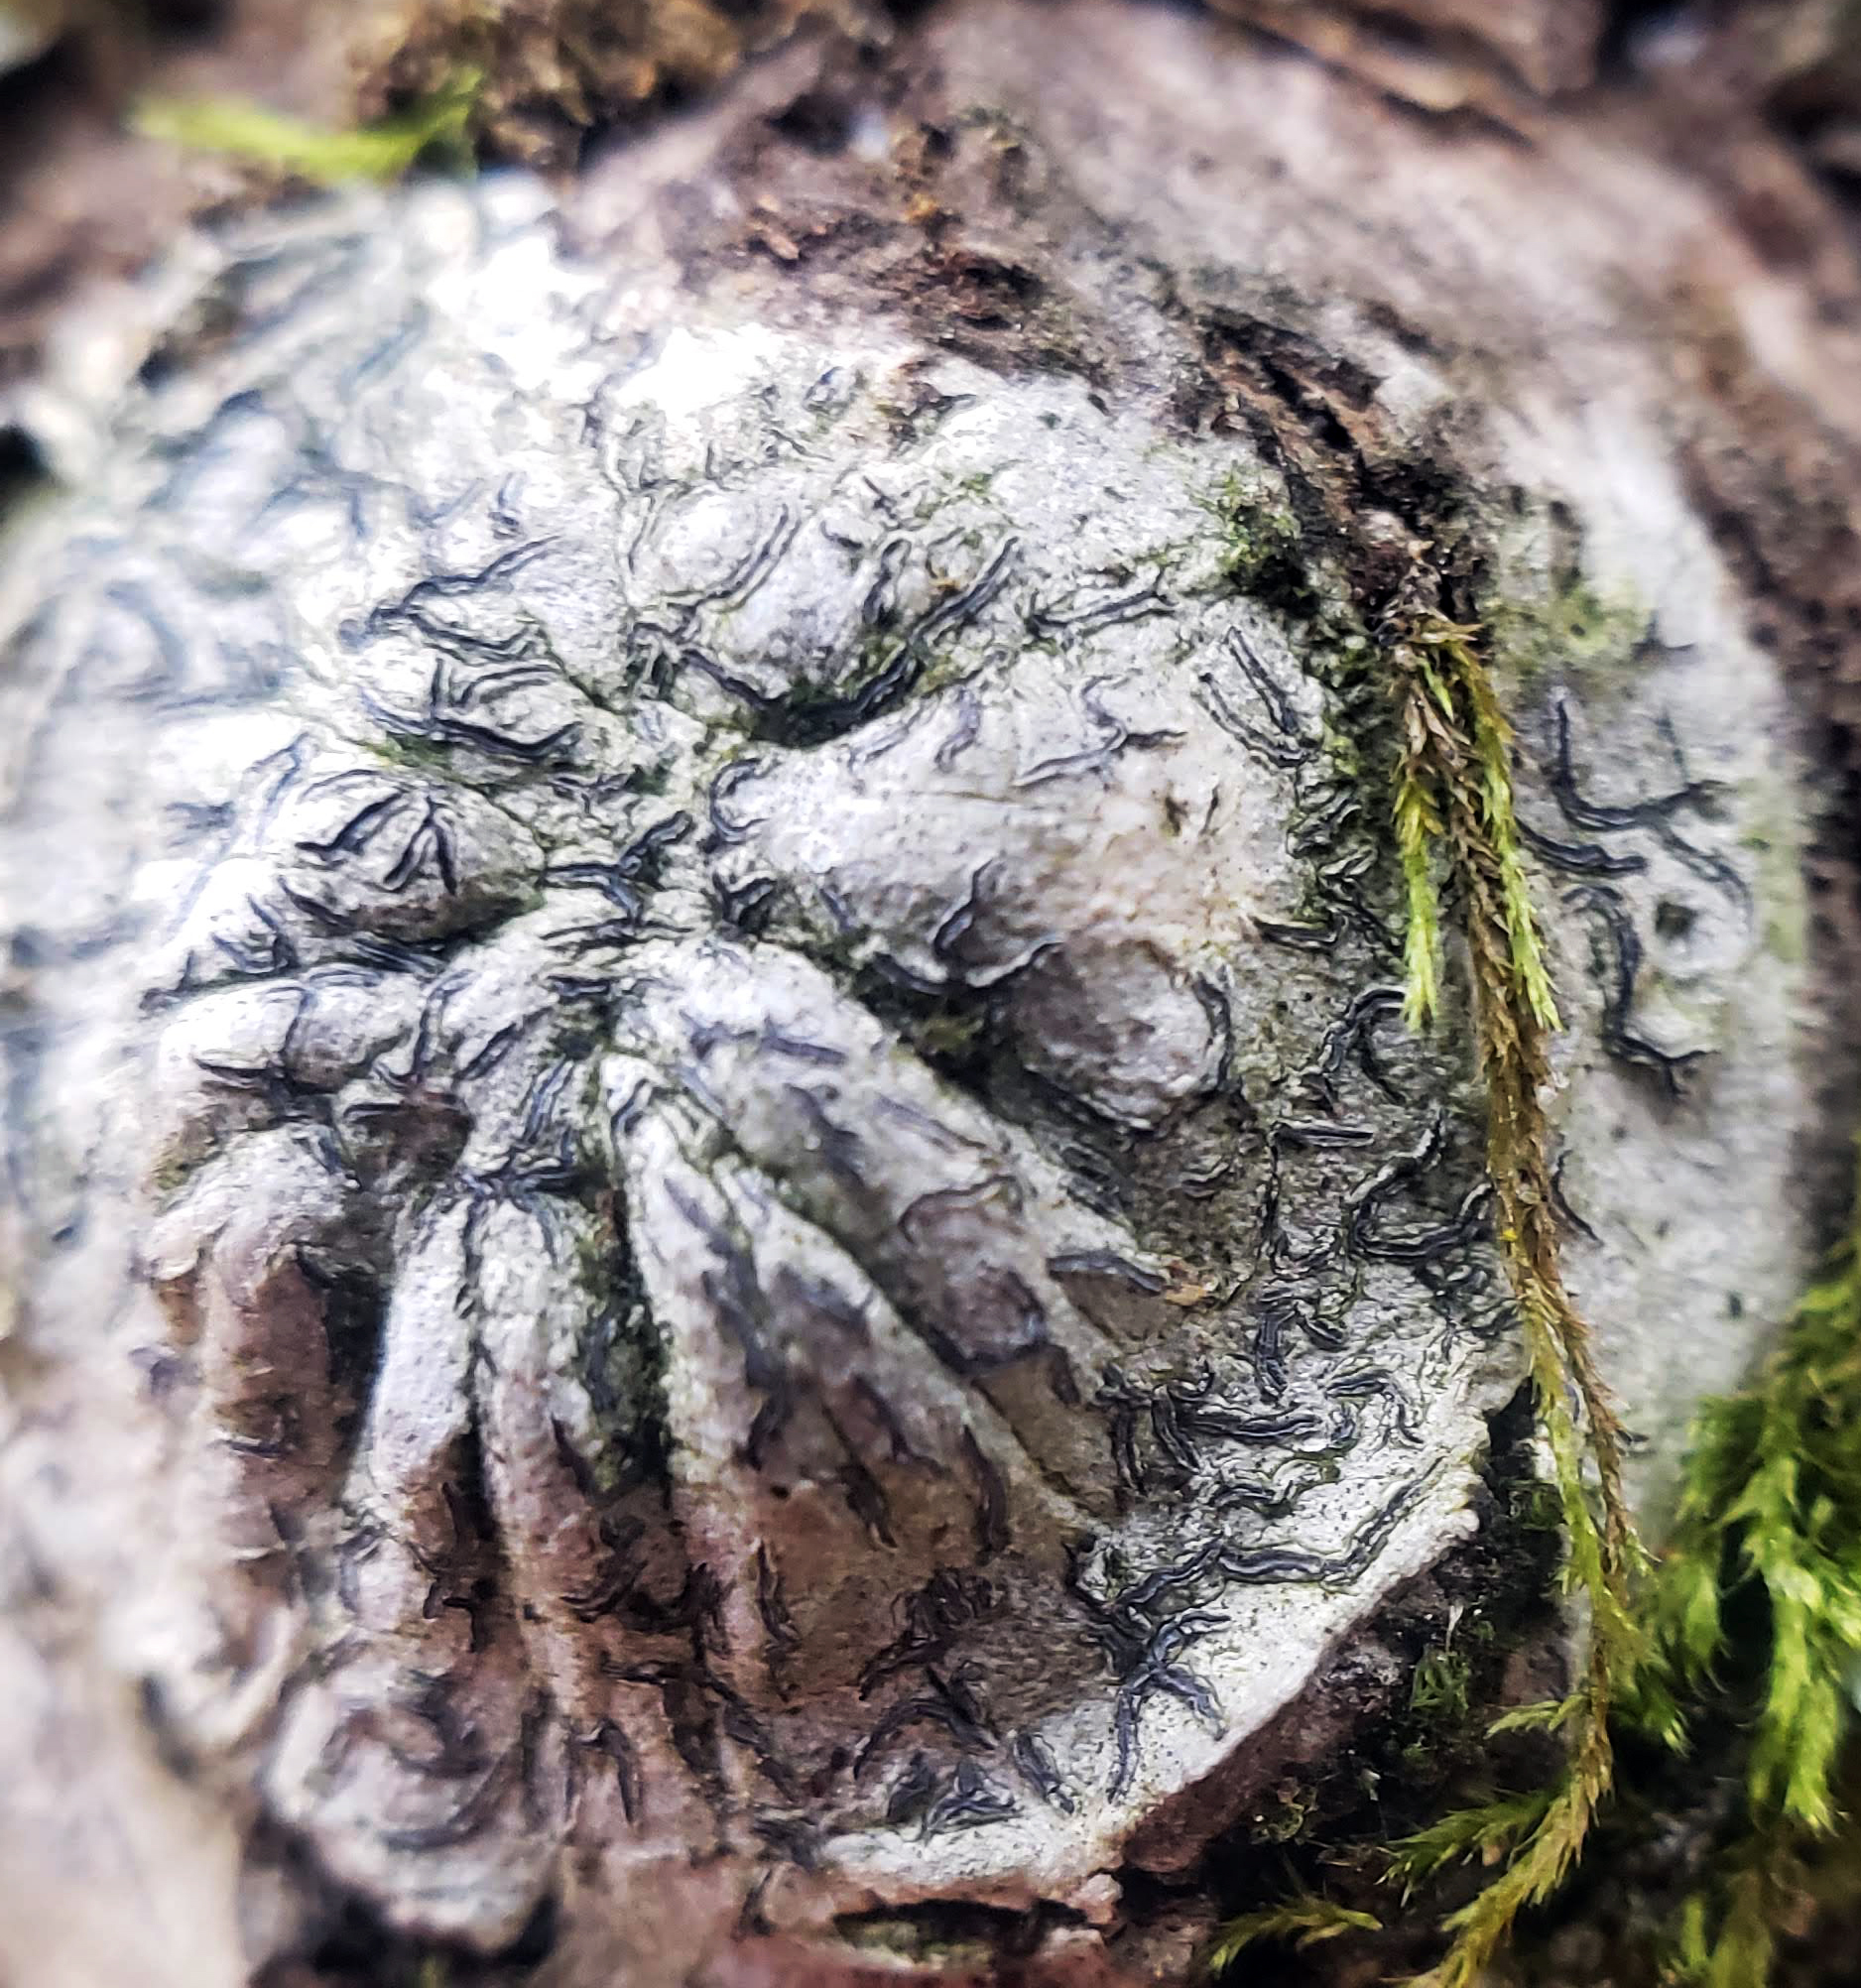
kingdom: Fungi
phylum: Ascomycota
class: Lecanoromycetes
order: Ostropales
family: Graphidaceae
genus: Graphis
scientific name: Graphis scripta
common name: Script lichen
